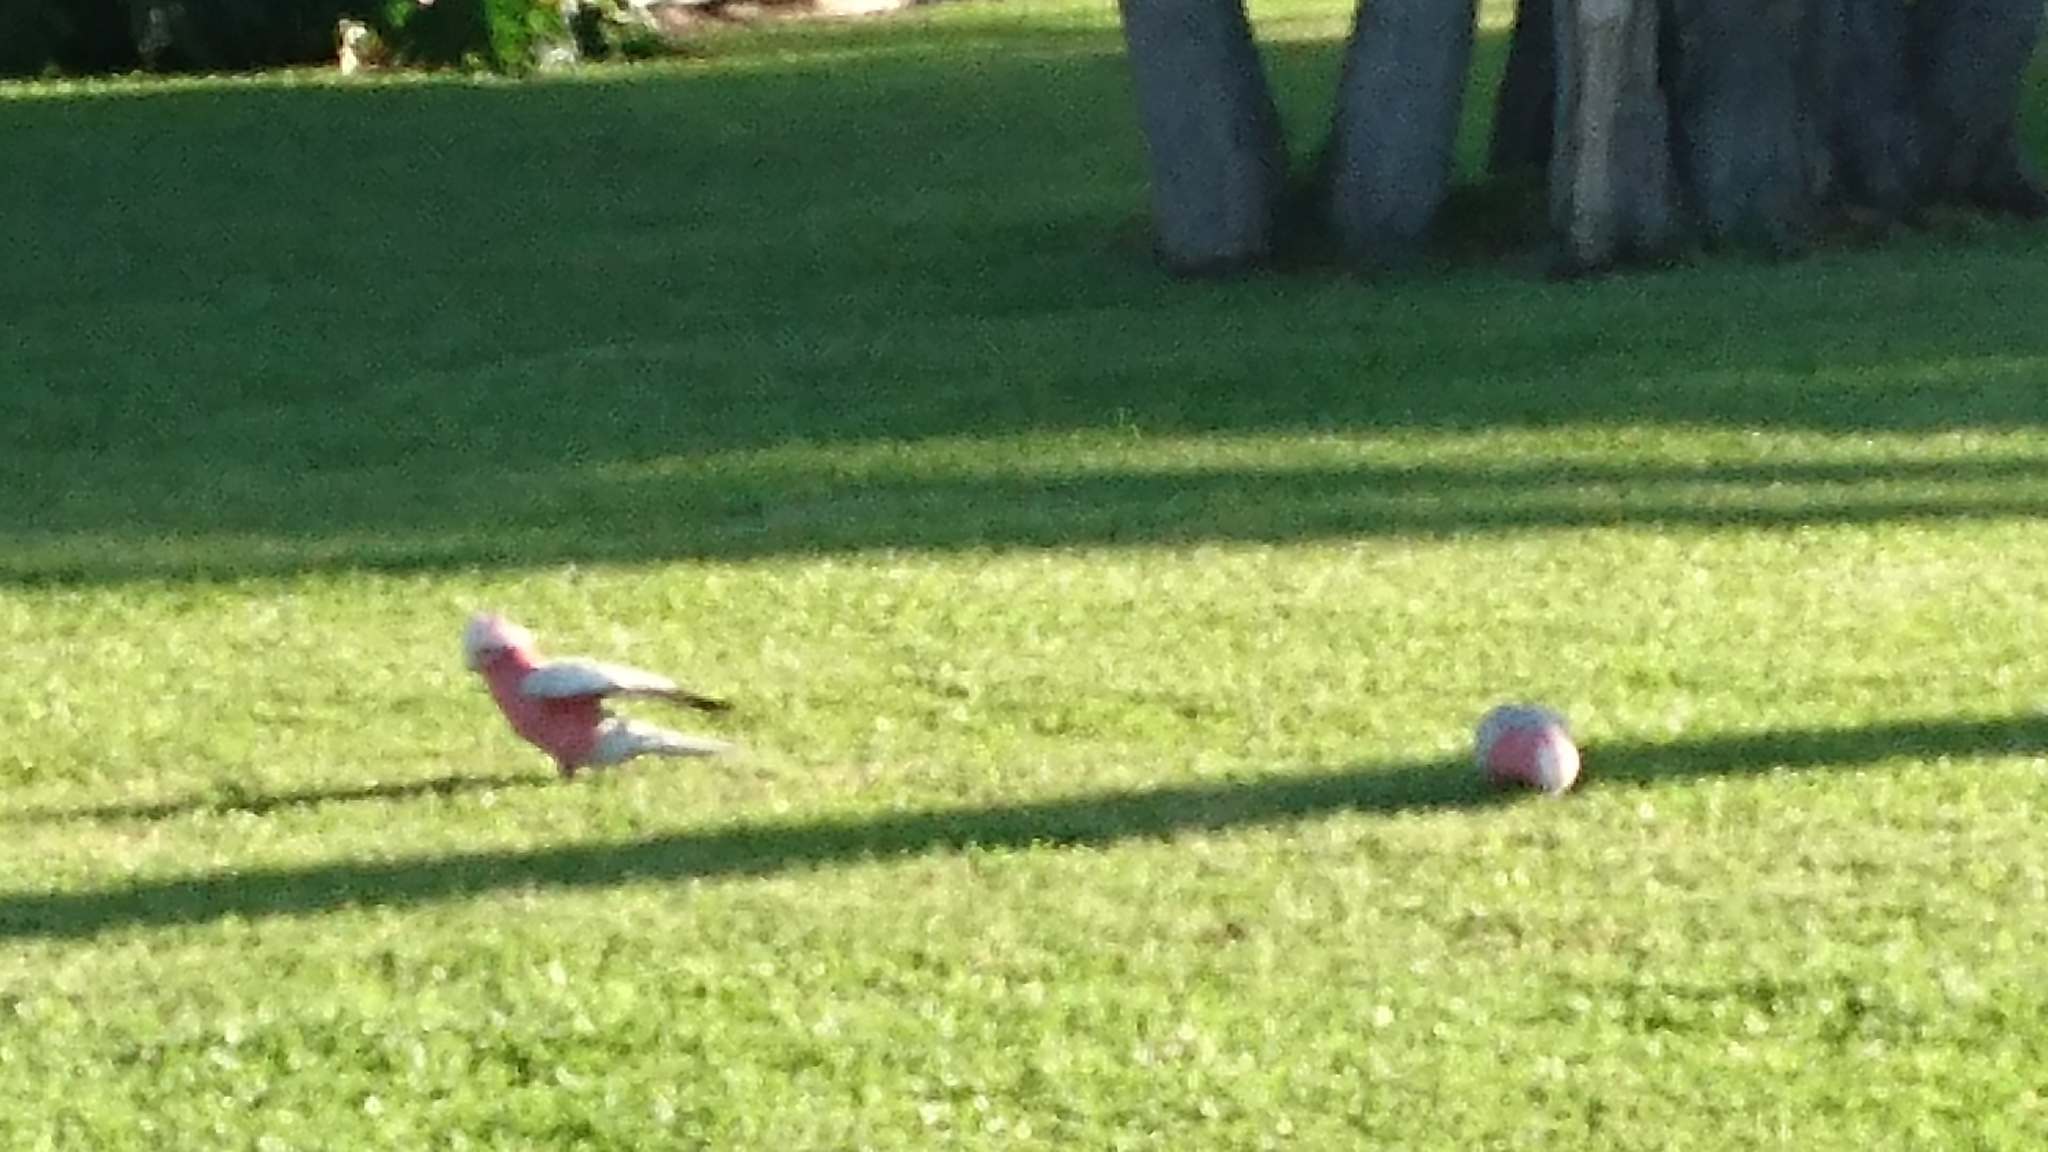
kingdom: Animalia
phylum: Chordata
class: Aves
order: Psittaciformes
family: Psittacidae
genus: Eolophus
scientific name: Eolophus roseicapilla
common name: Galah
